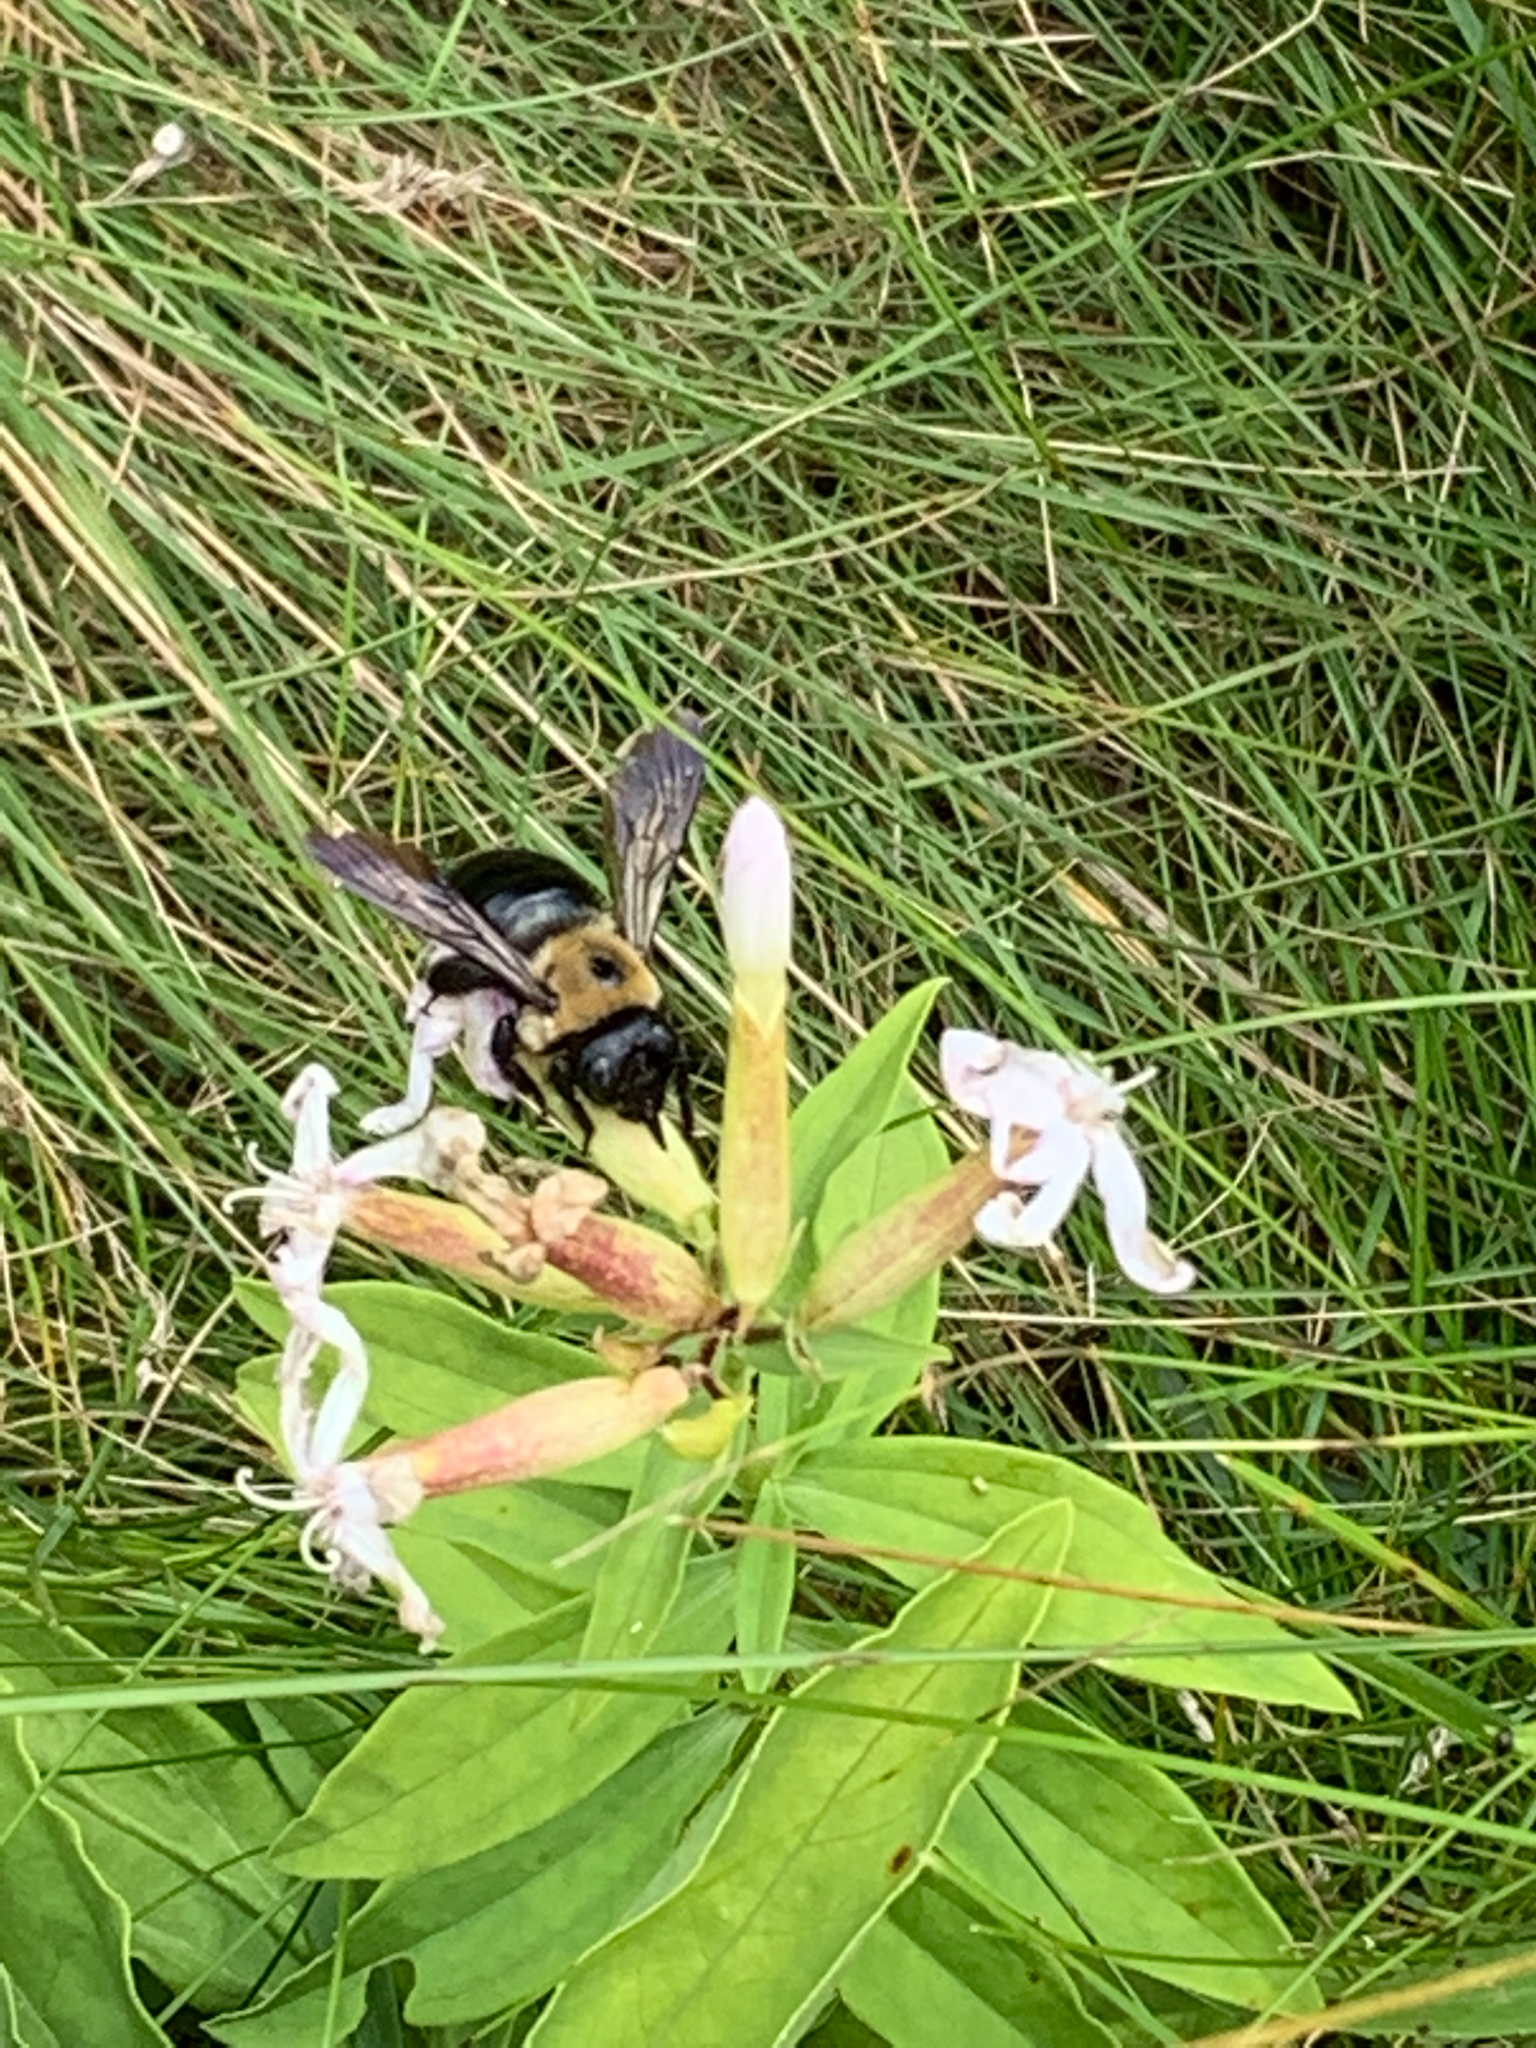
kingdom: Animalia
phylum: Arthropoda
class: Insecta
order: Hymenoptera
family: Apidae
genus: Xylocopa
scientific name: Xylocopa virginica
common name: Carpenter bee
